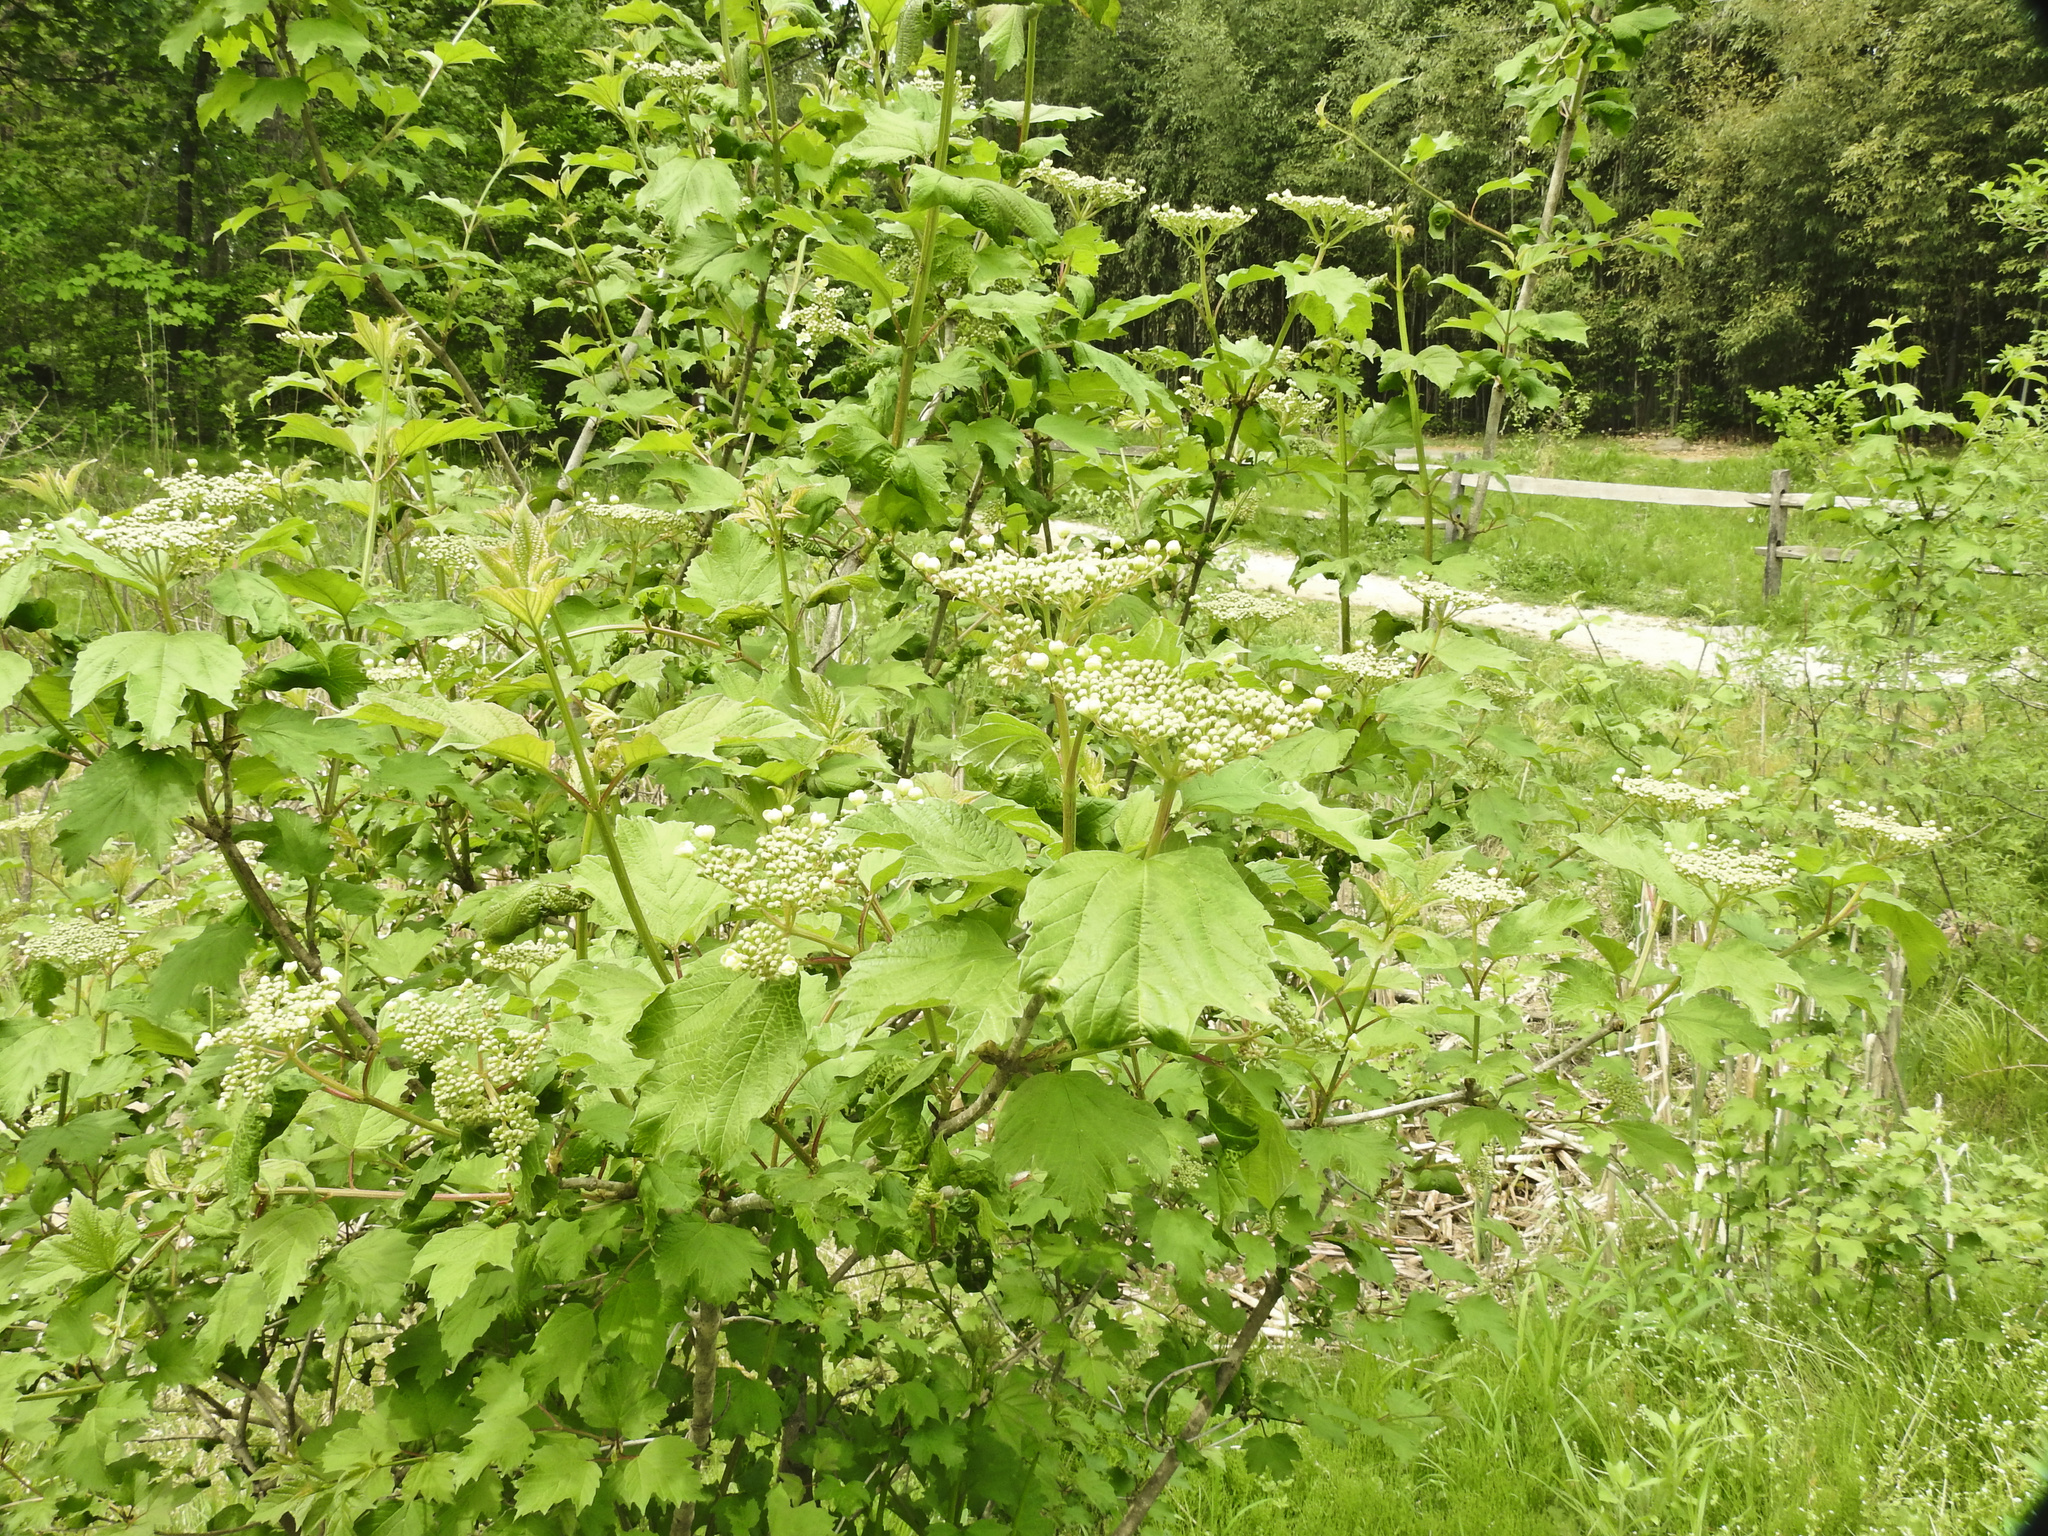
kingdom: Plantae
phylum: Tracheophyta
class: Magnoliopsida
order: Dipsacales
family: Viburnaceae
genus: Viburnum
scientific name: Viburnum opulus
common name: Guelder-rose
